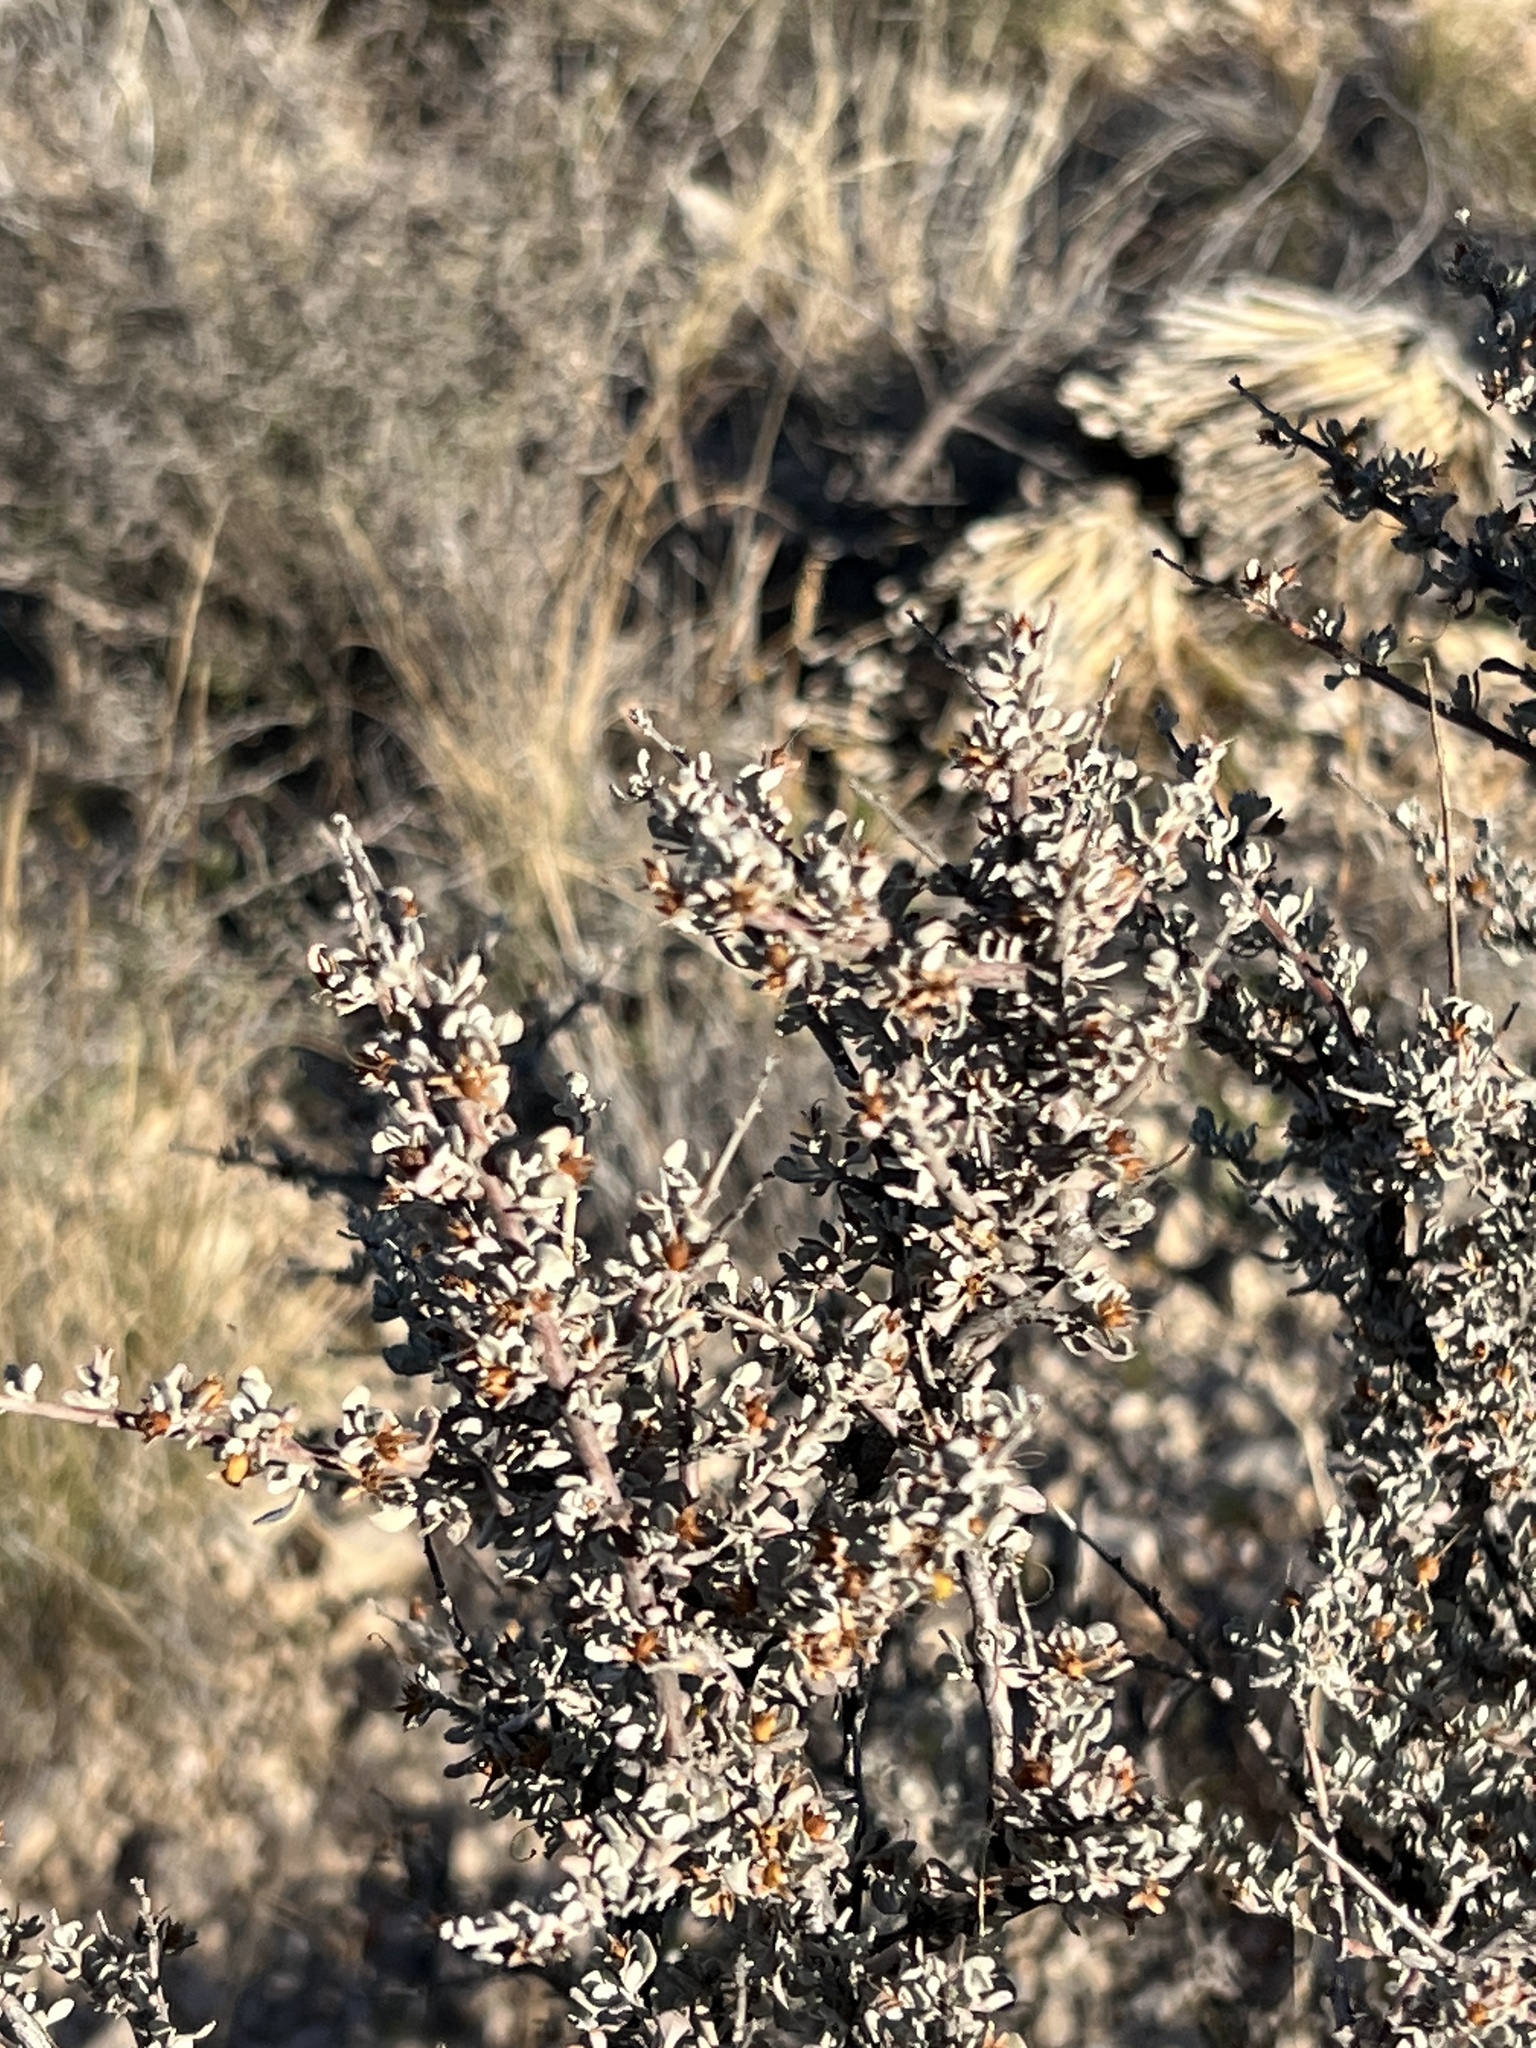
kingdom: Plantae
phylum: Tracheophyta
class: Magnoliopsida
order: Lamiales
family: Scrophulariaceae
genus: Leucophyllum
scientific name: Leucophyllum minus
